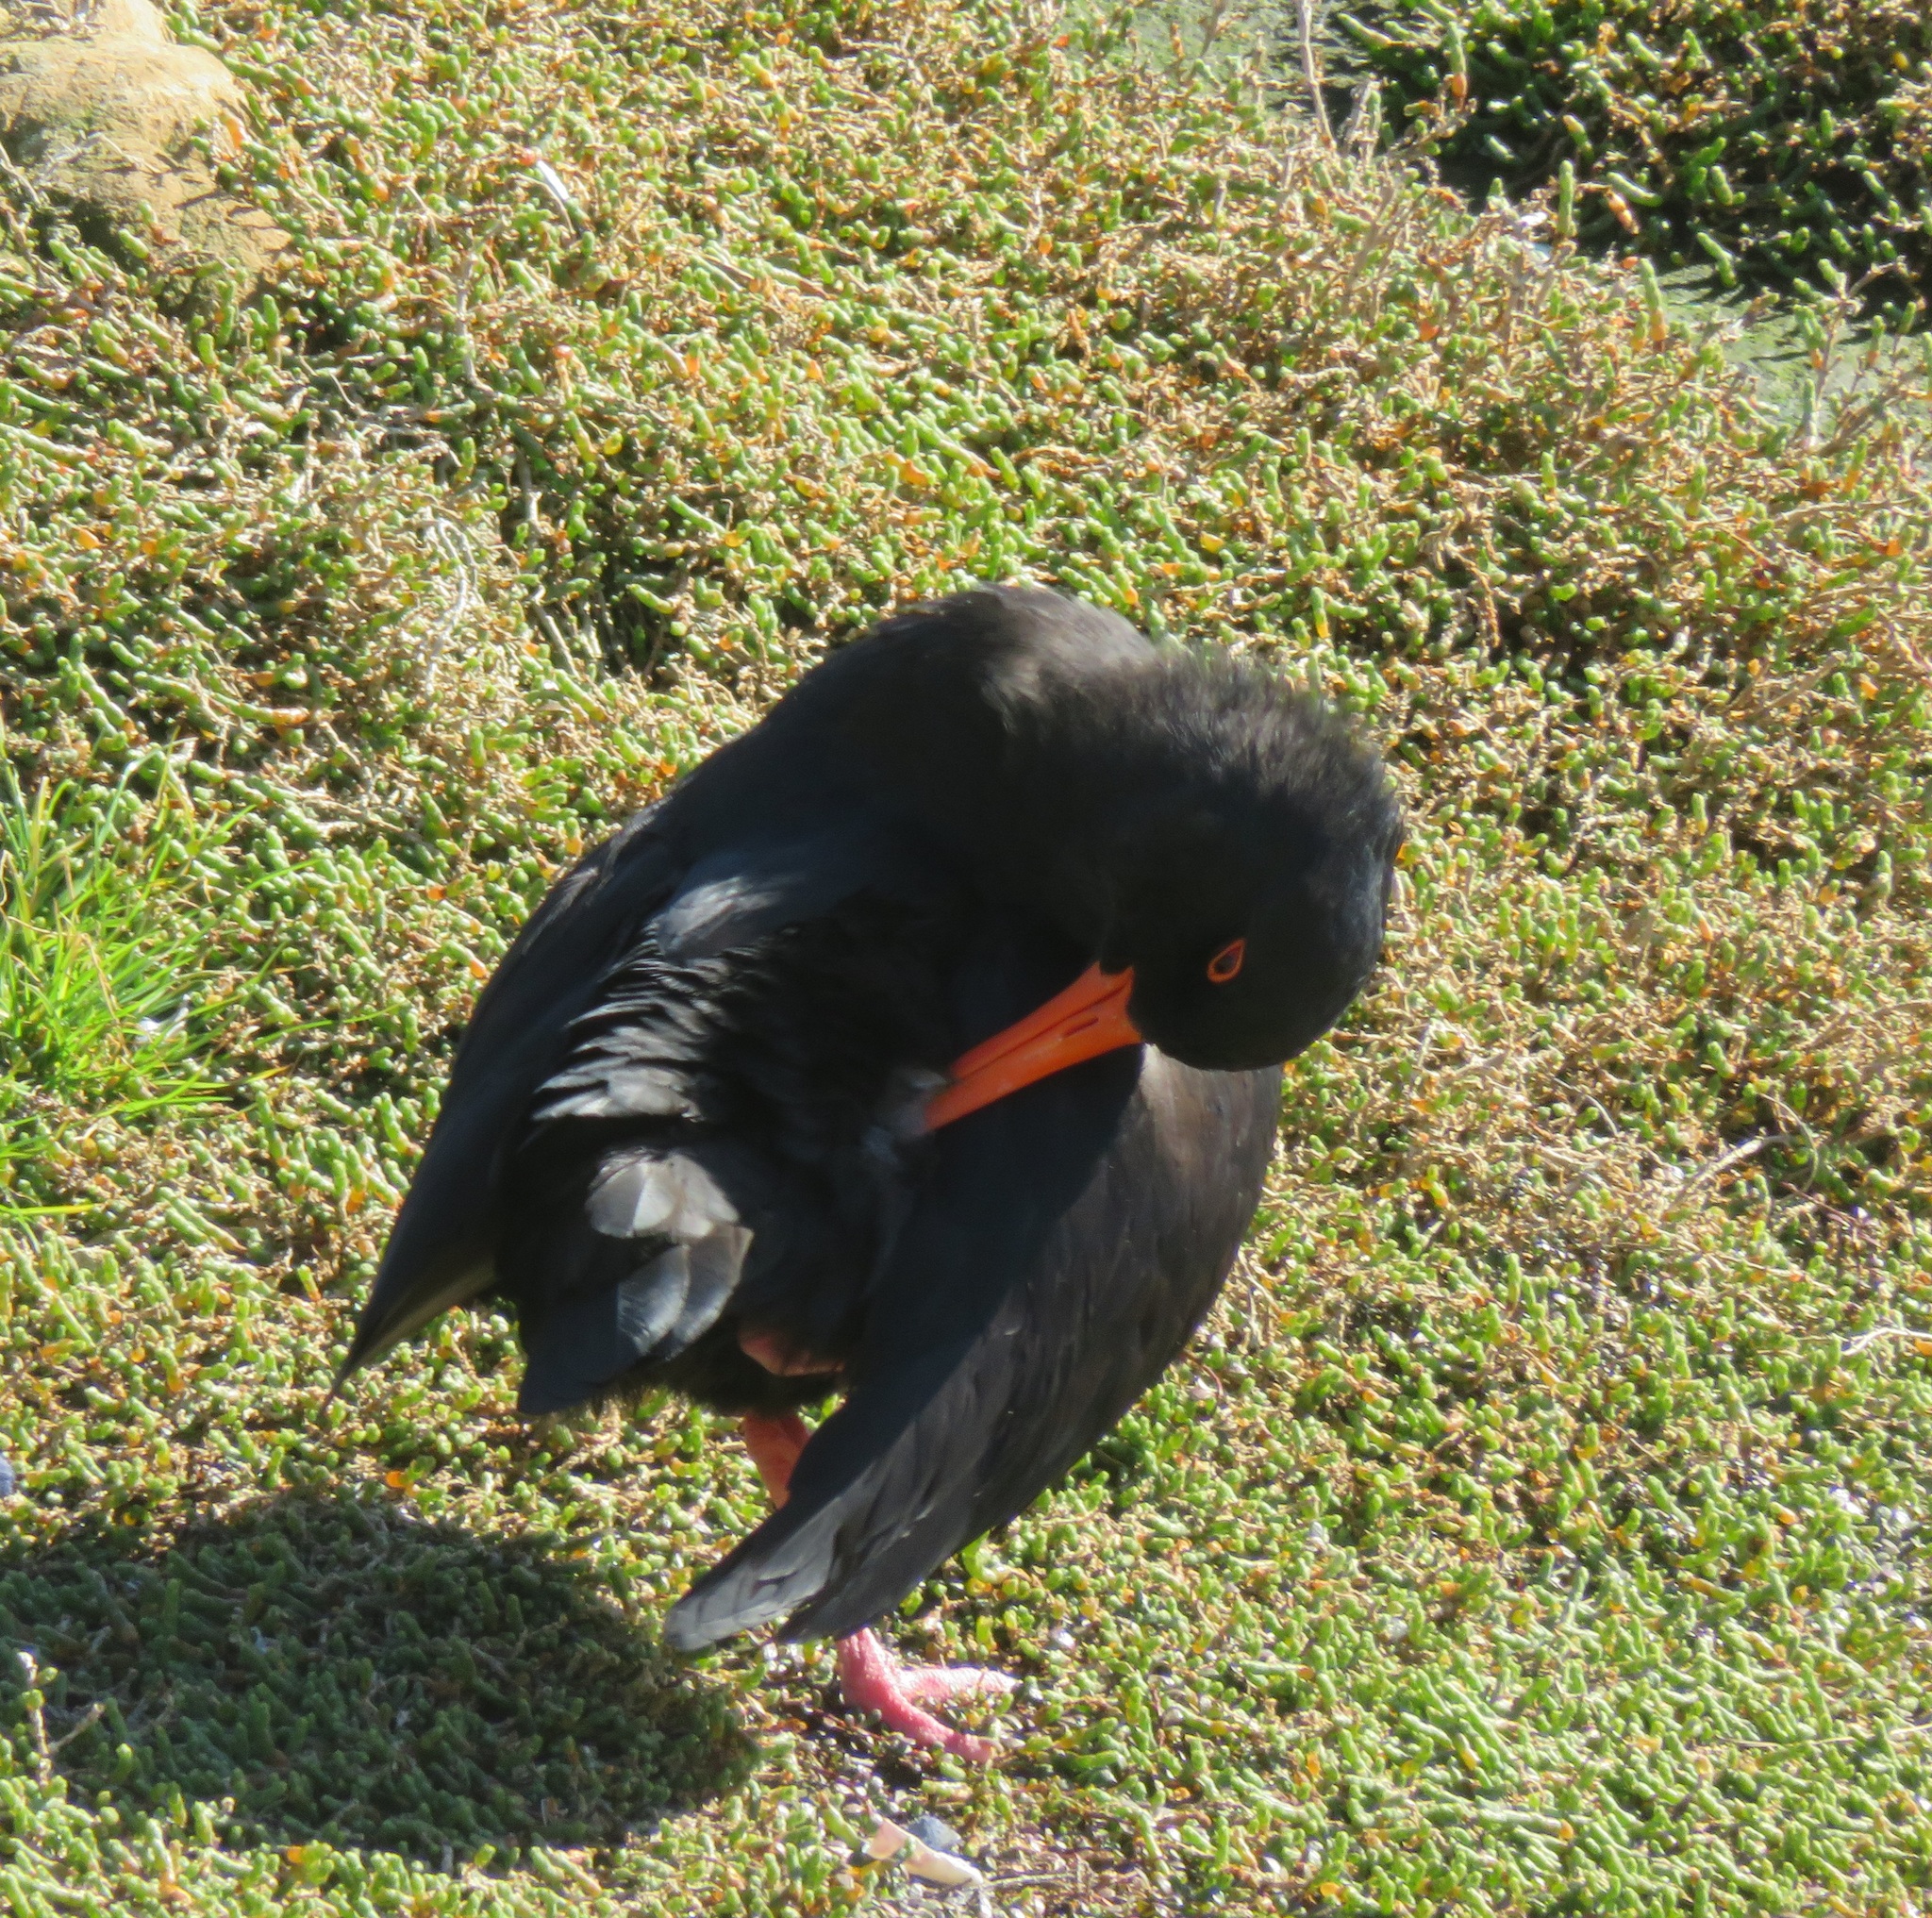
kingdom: Animalia
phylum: Chordata
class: Aves
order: Charadriiformes
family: Haematopodidae
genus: Haematopus
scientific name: Haematopus unicolor
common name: Variable oystercatcher
